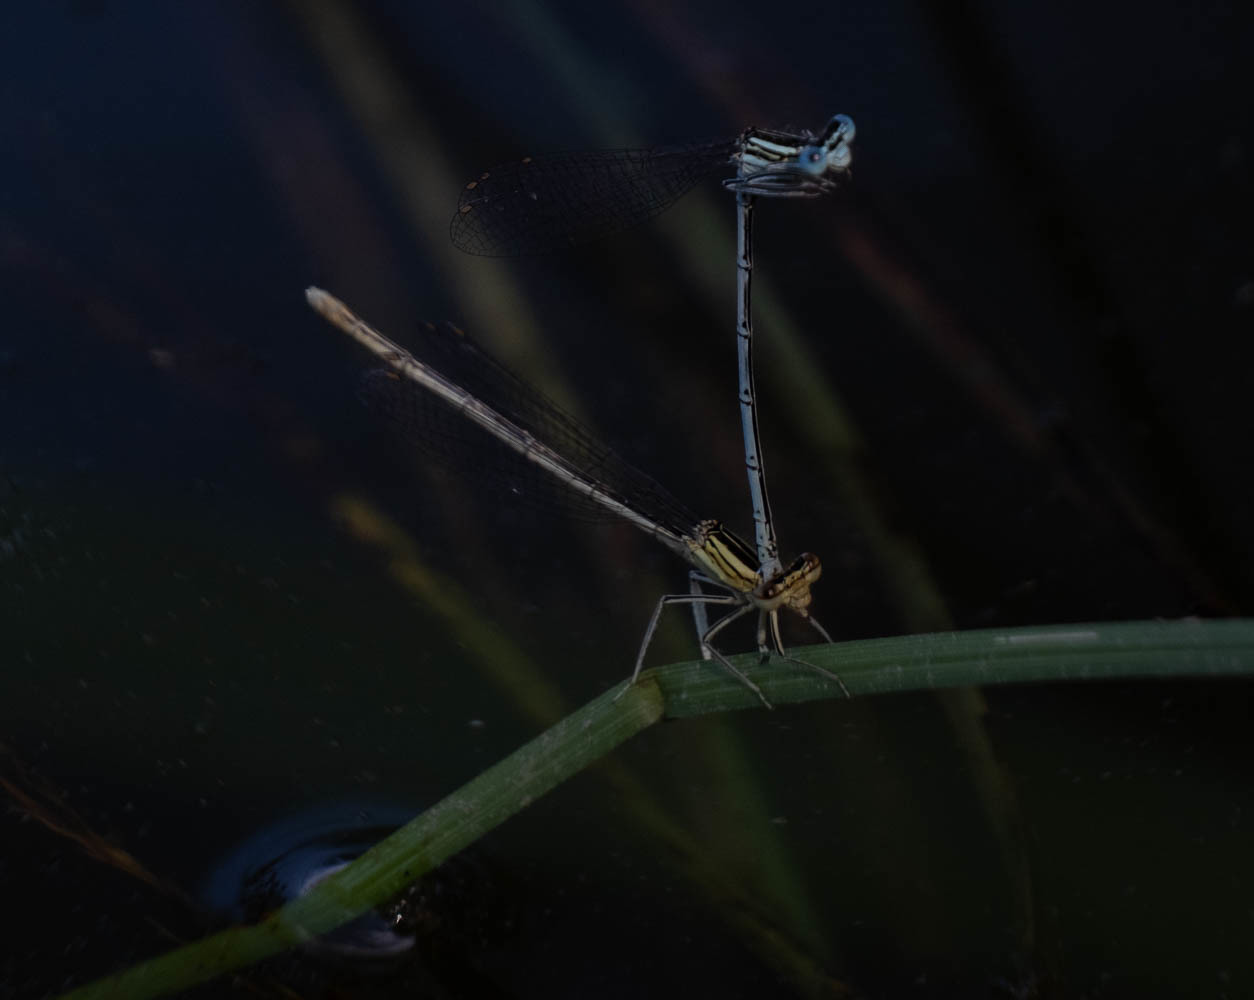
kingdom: Animalia
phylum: Arthropoda
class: Insecta
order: Odonata
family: Platycnemididae
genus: Platycnemis
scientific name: Platycnemis pennipes
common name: White-legged damselfly
